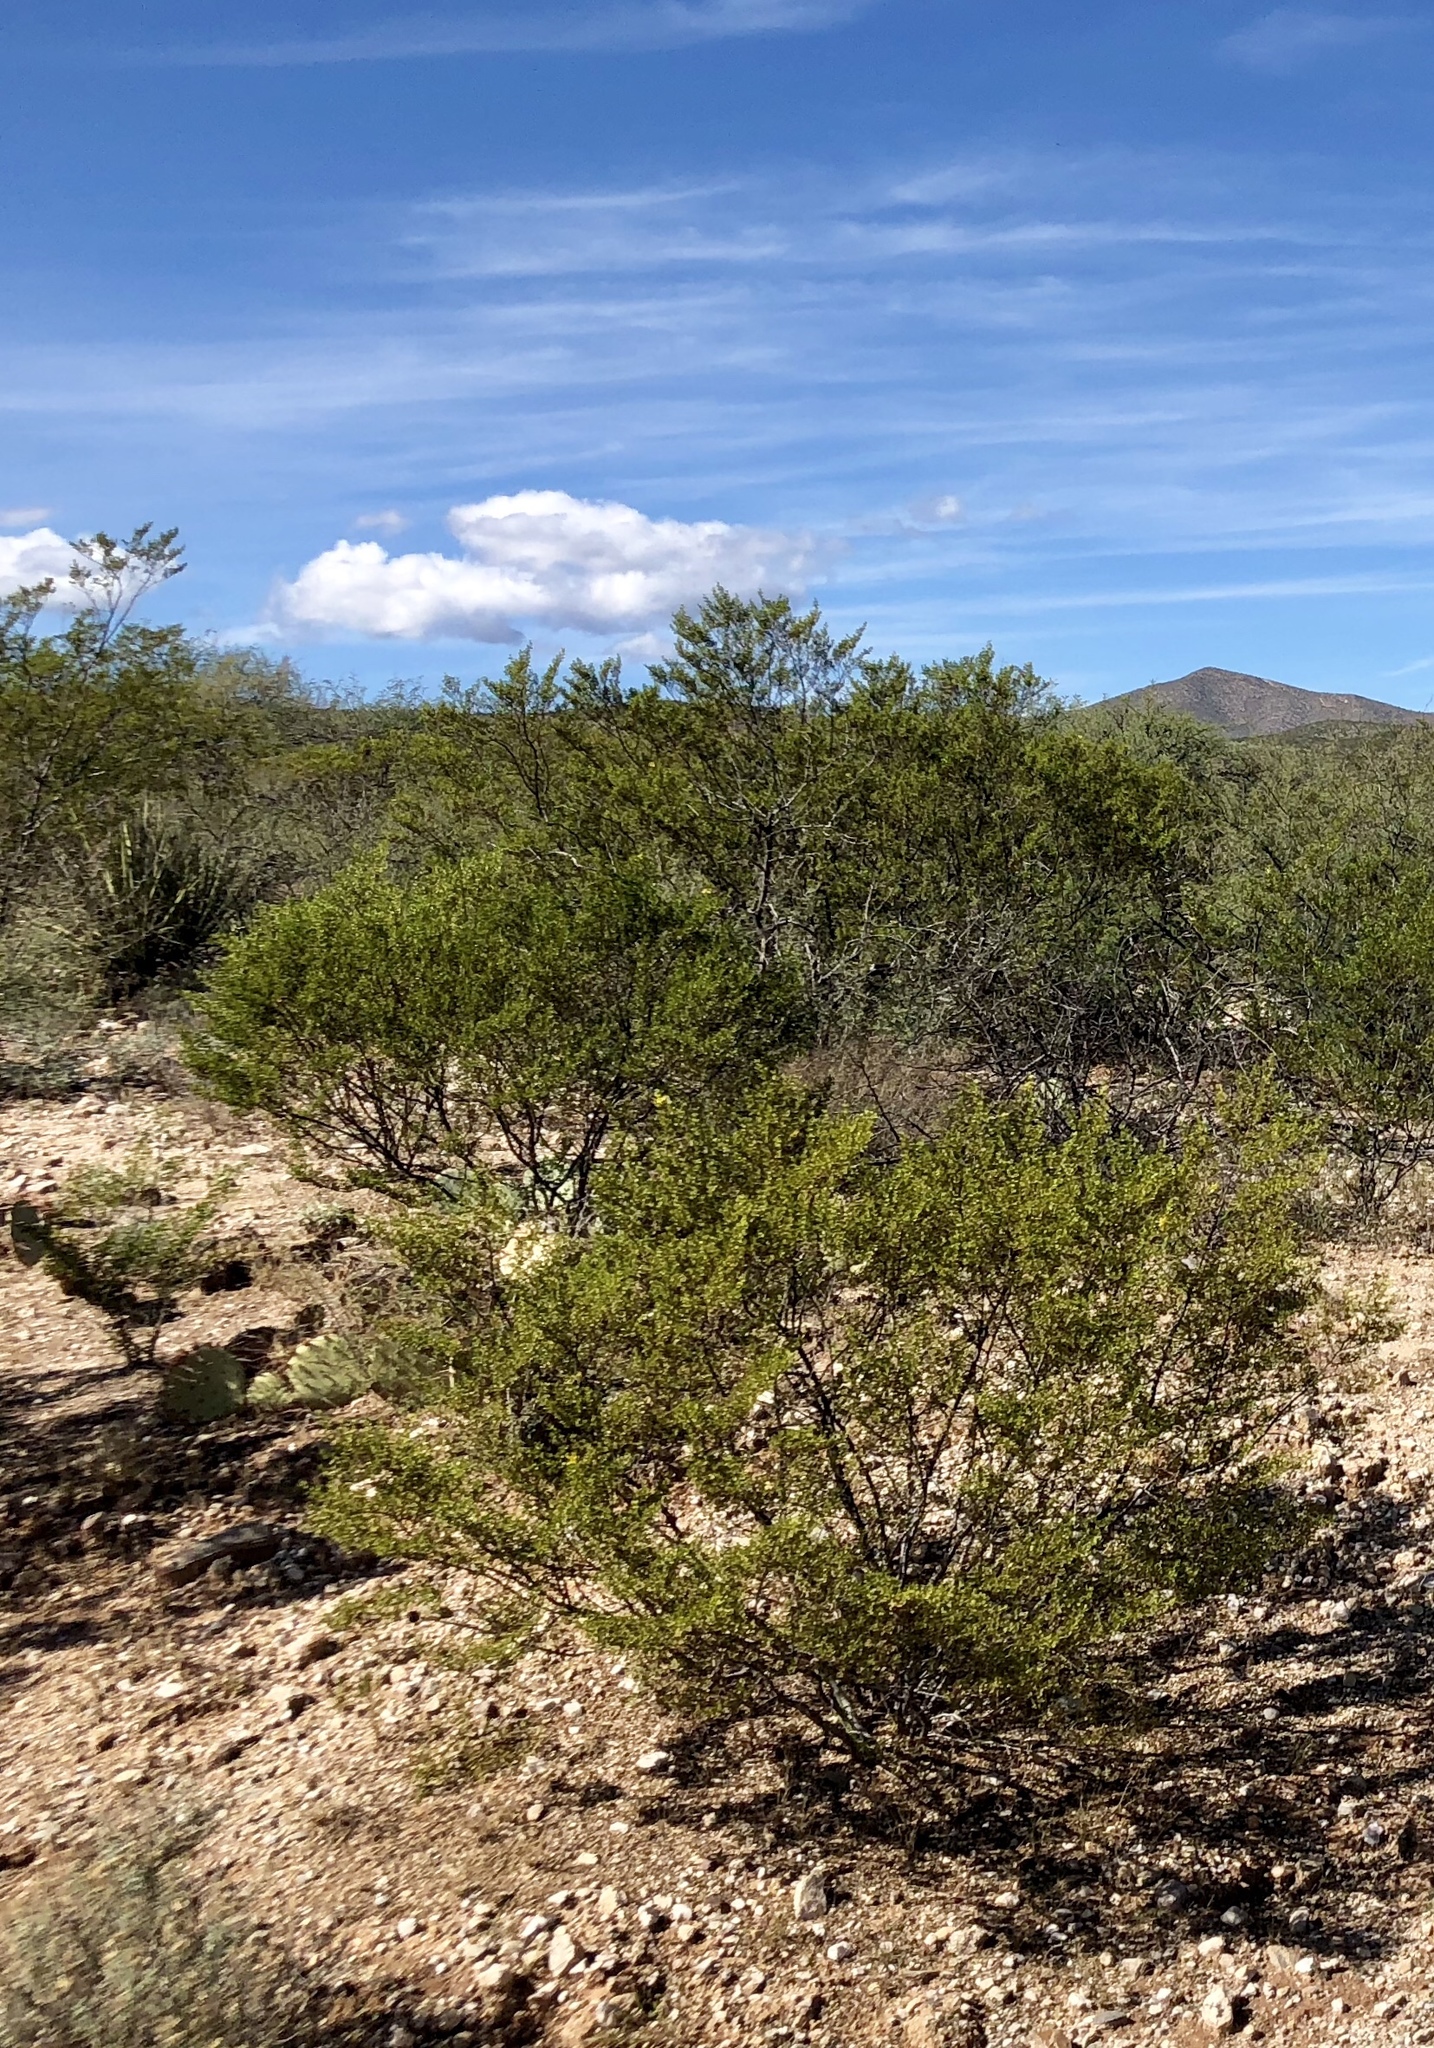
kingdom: Plantae
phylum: Tracheophyta
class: Magnoliopsida
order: Zygophyllales
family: Zygophyllaceae
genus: Larrea
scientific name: Larrea tridentata
